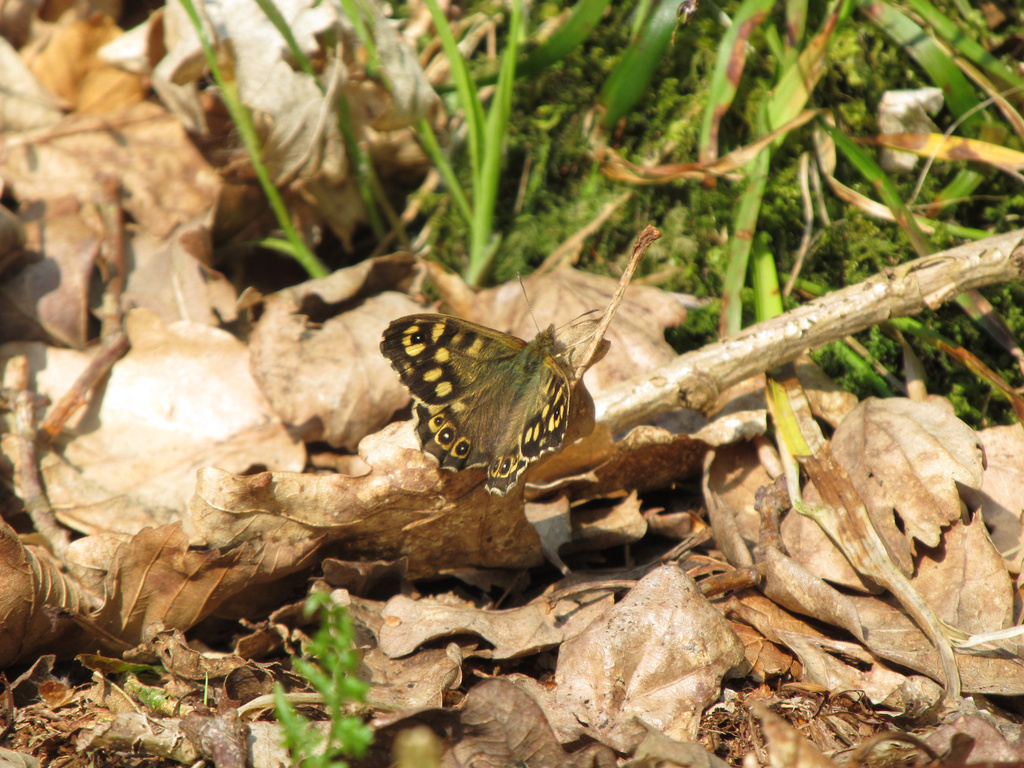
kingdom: Animalia
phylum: Arthropoda
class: Insecta
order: Lepidoptera
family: Nymphalidae
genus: Pararge
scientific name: Pararge aegeria
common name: Speckled wood
